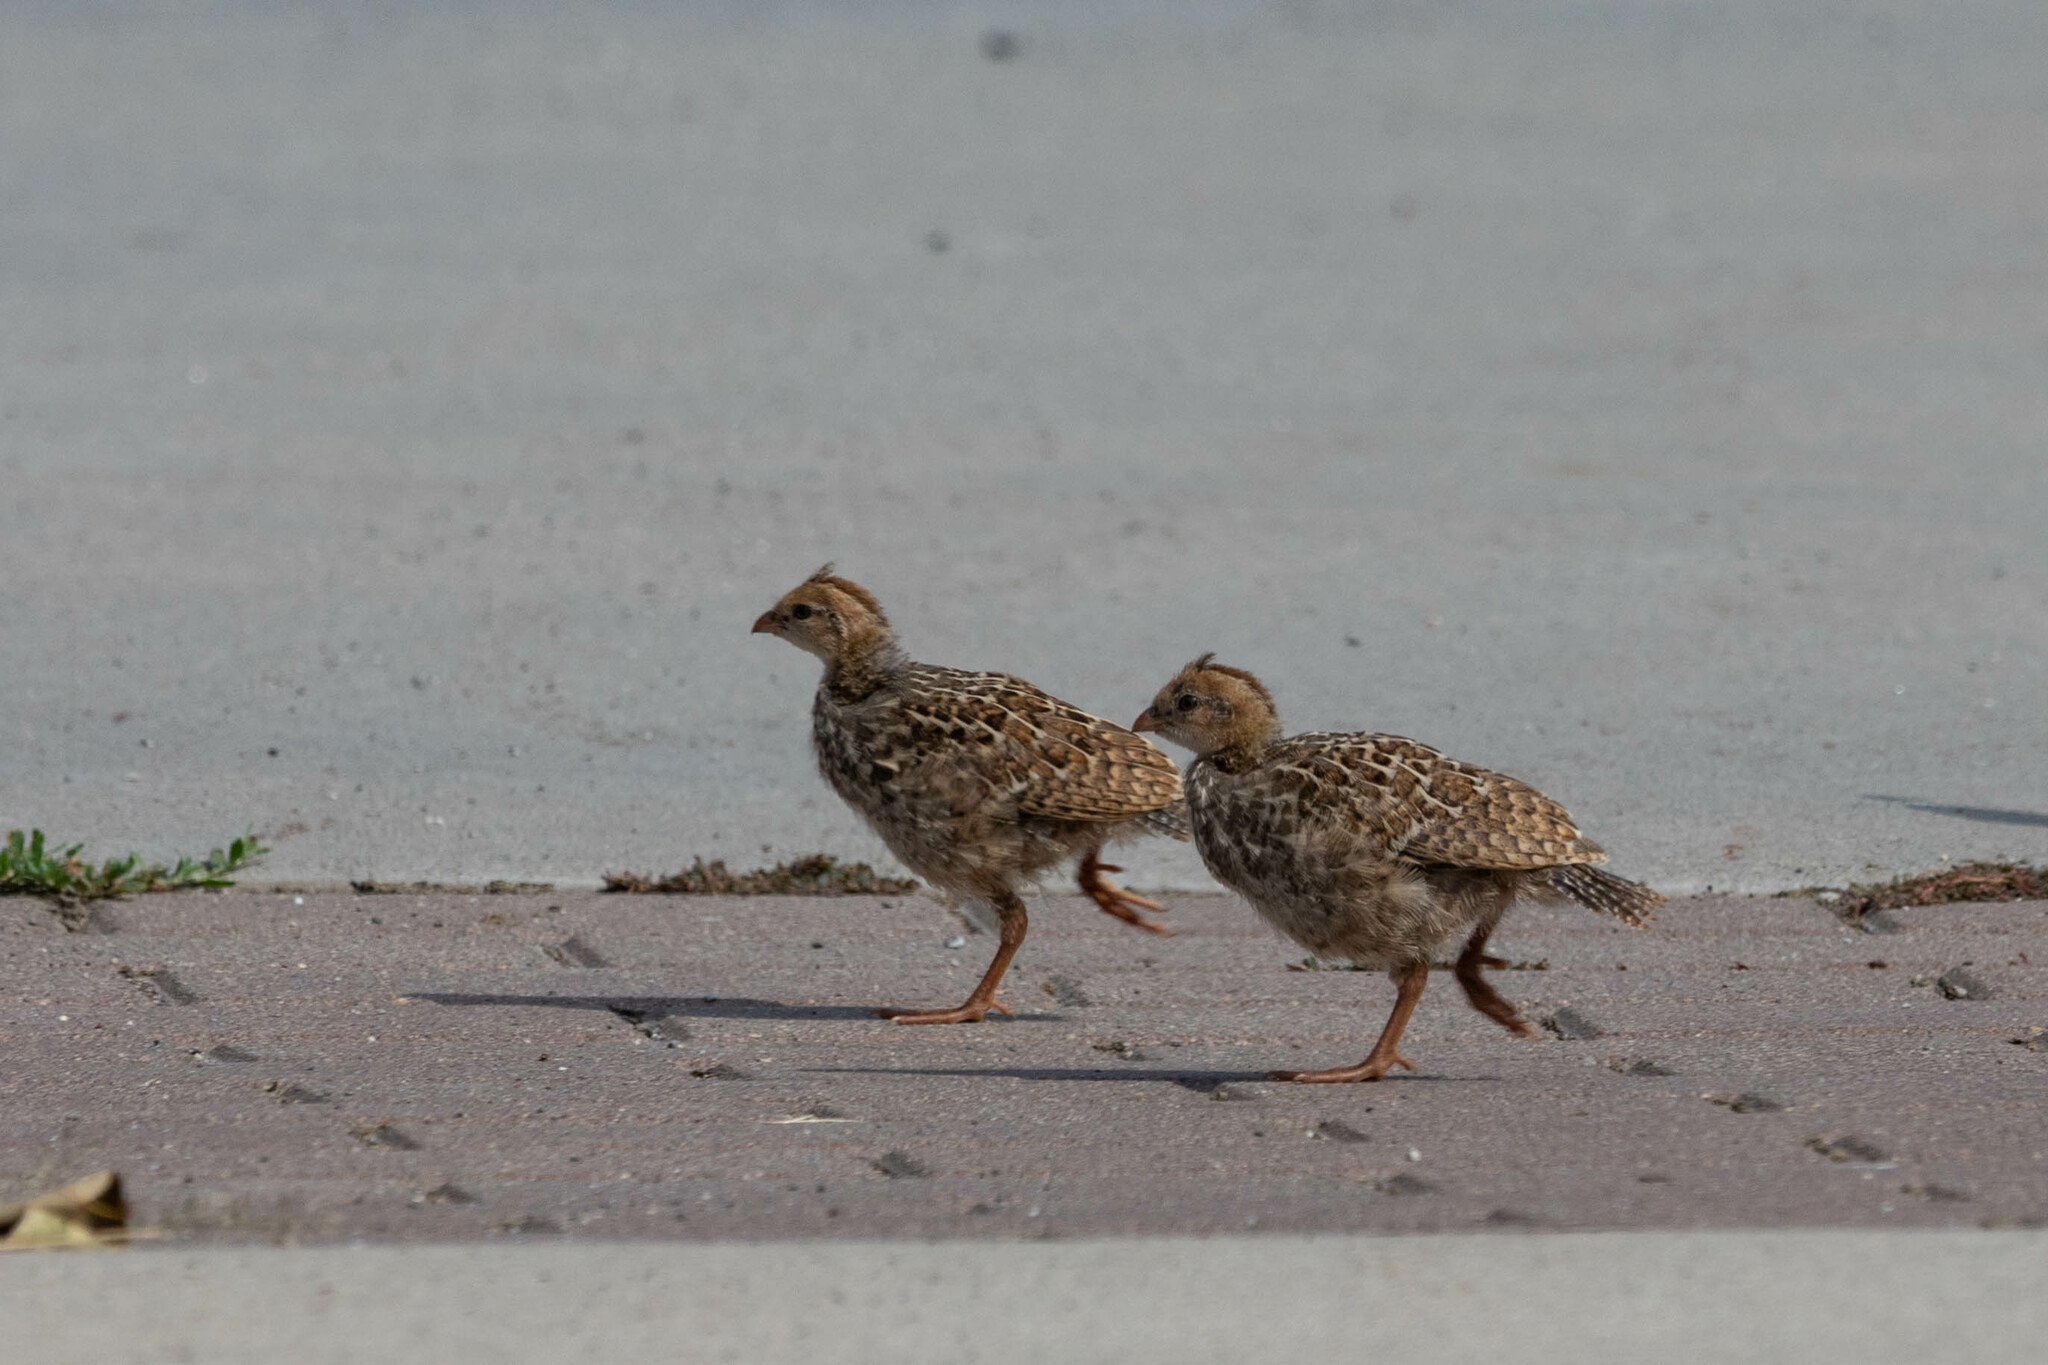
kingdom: Animalia
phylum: Chordata
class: Aves
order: Galliformes
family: Odontophoridae
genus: Callipepla
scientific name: Callipepla californica
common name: California quail
